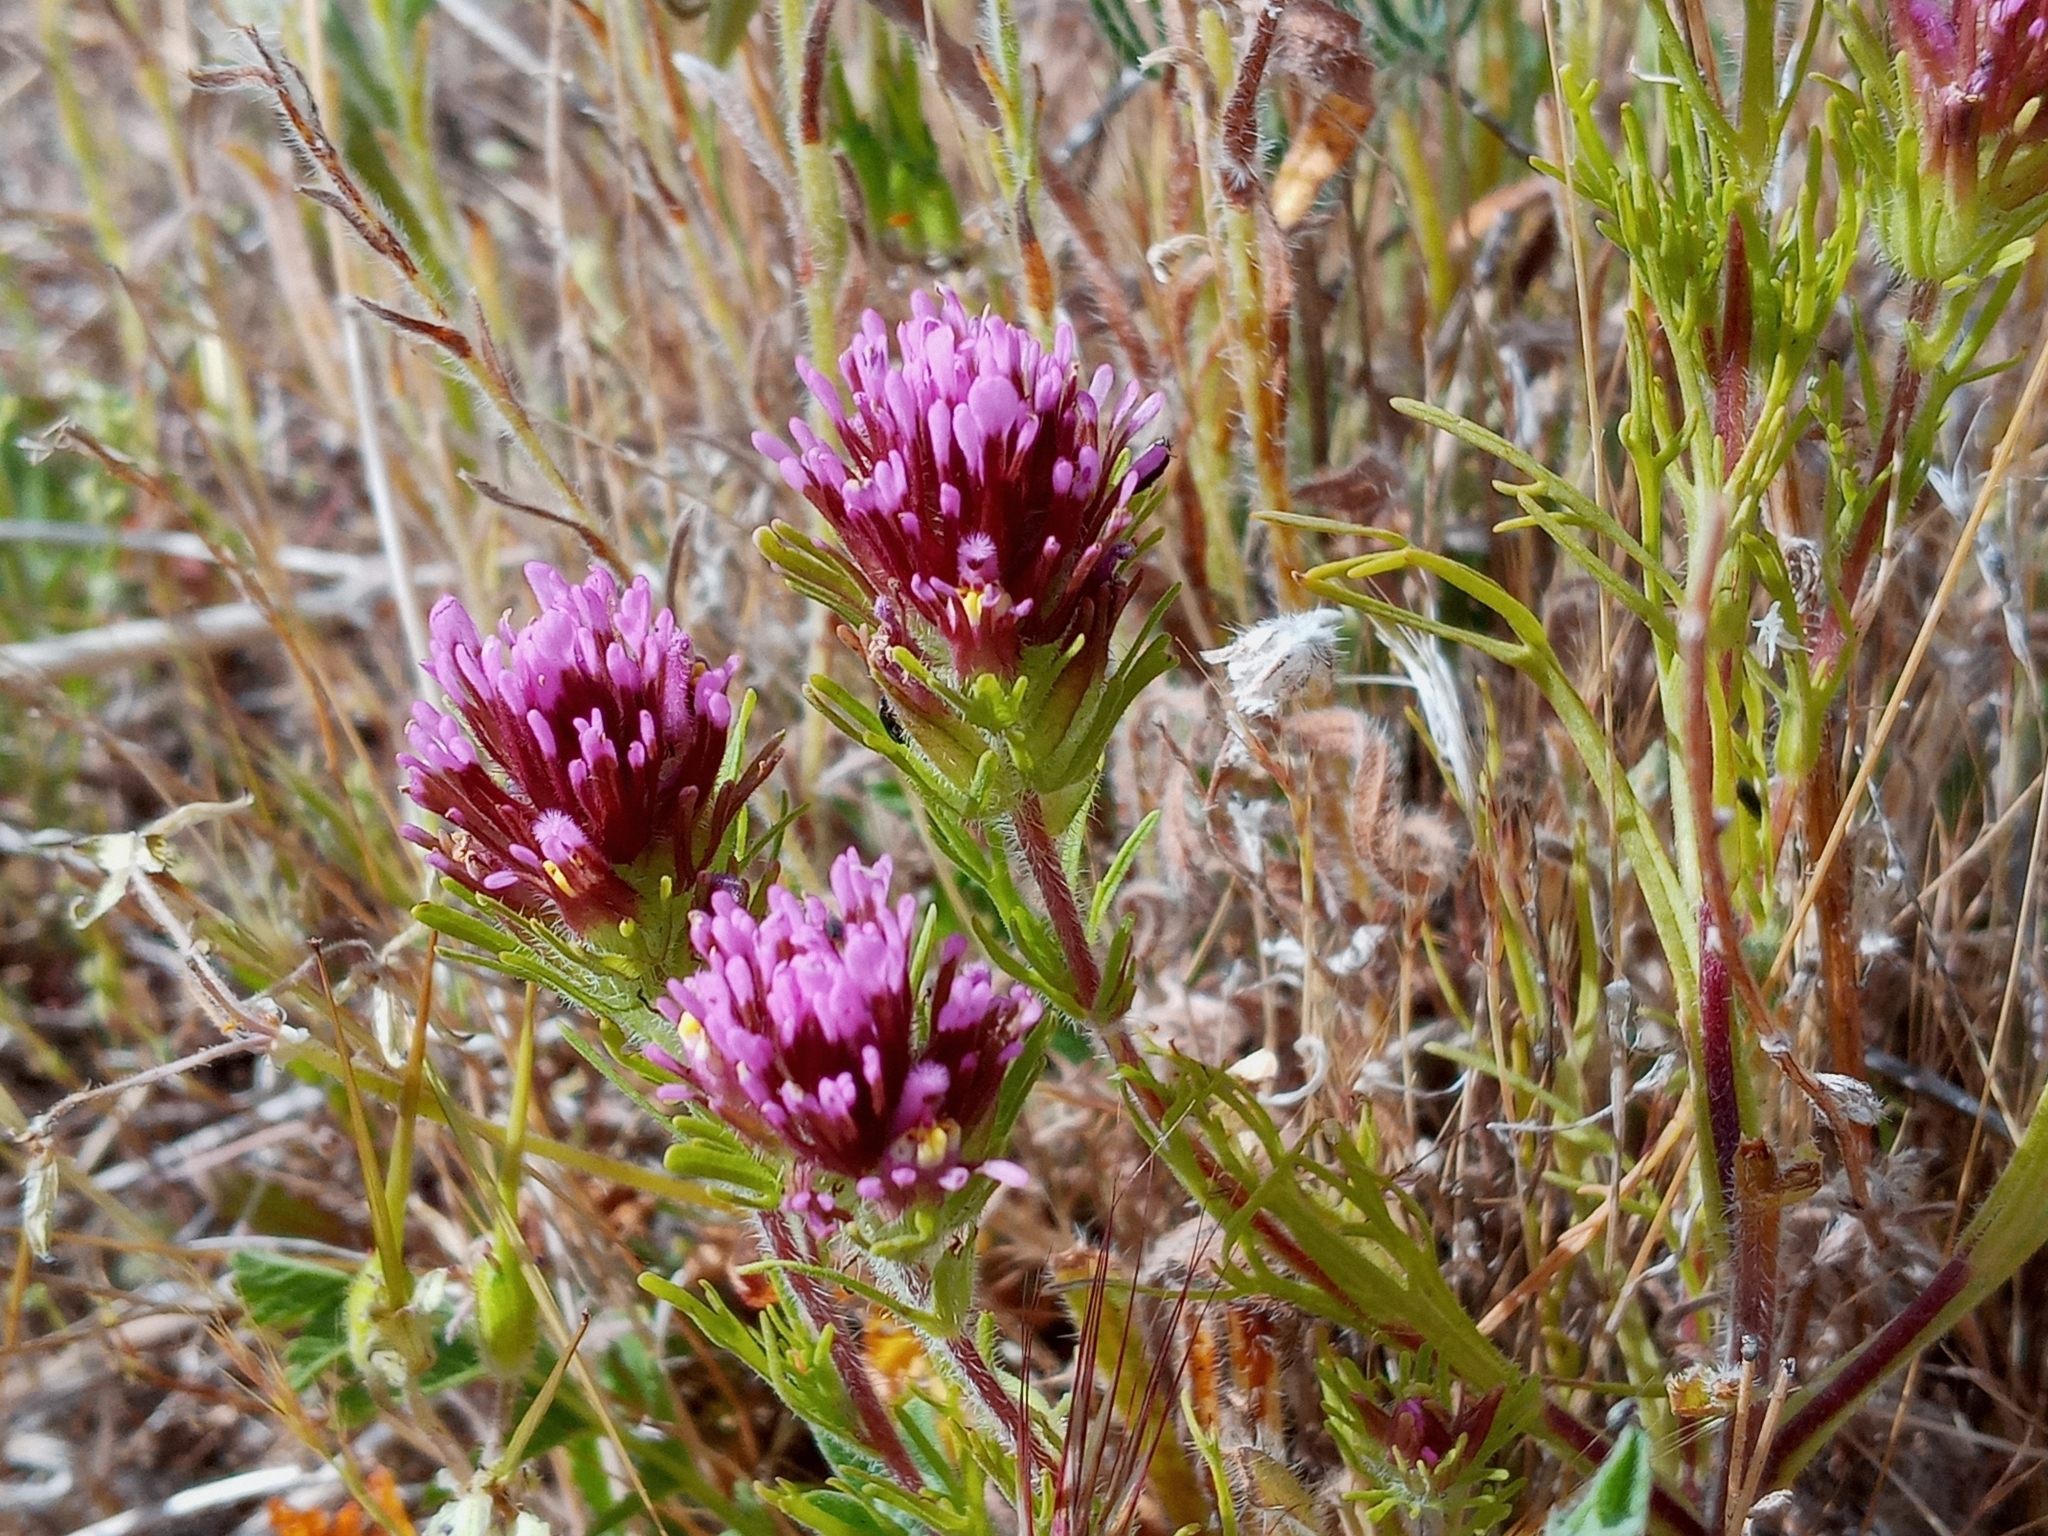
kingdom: Plantae
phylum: Tracheophyta
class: Magnoliopsida
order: Lamiales
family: Orobanchaceae
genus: Castilleja
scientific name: Castilleja exserta
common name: Purple owl-clover
